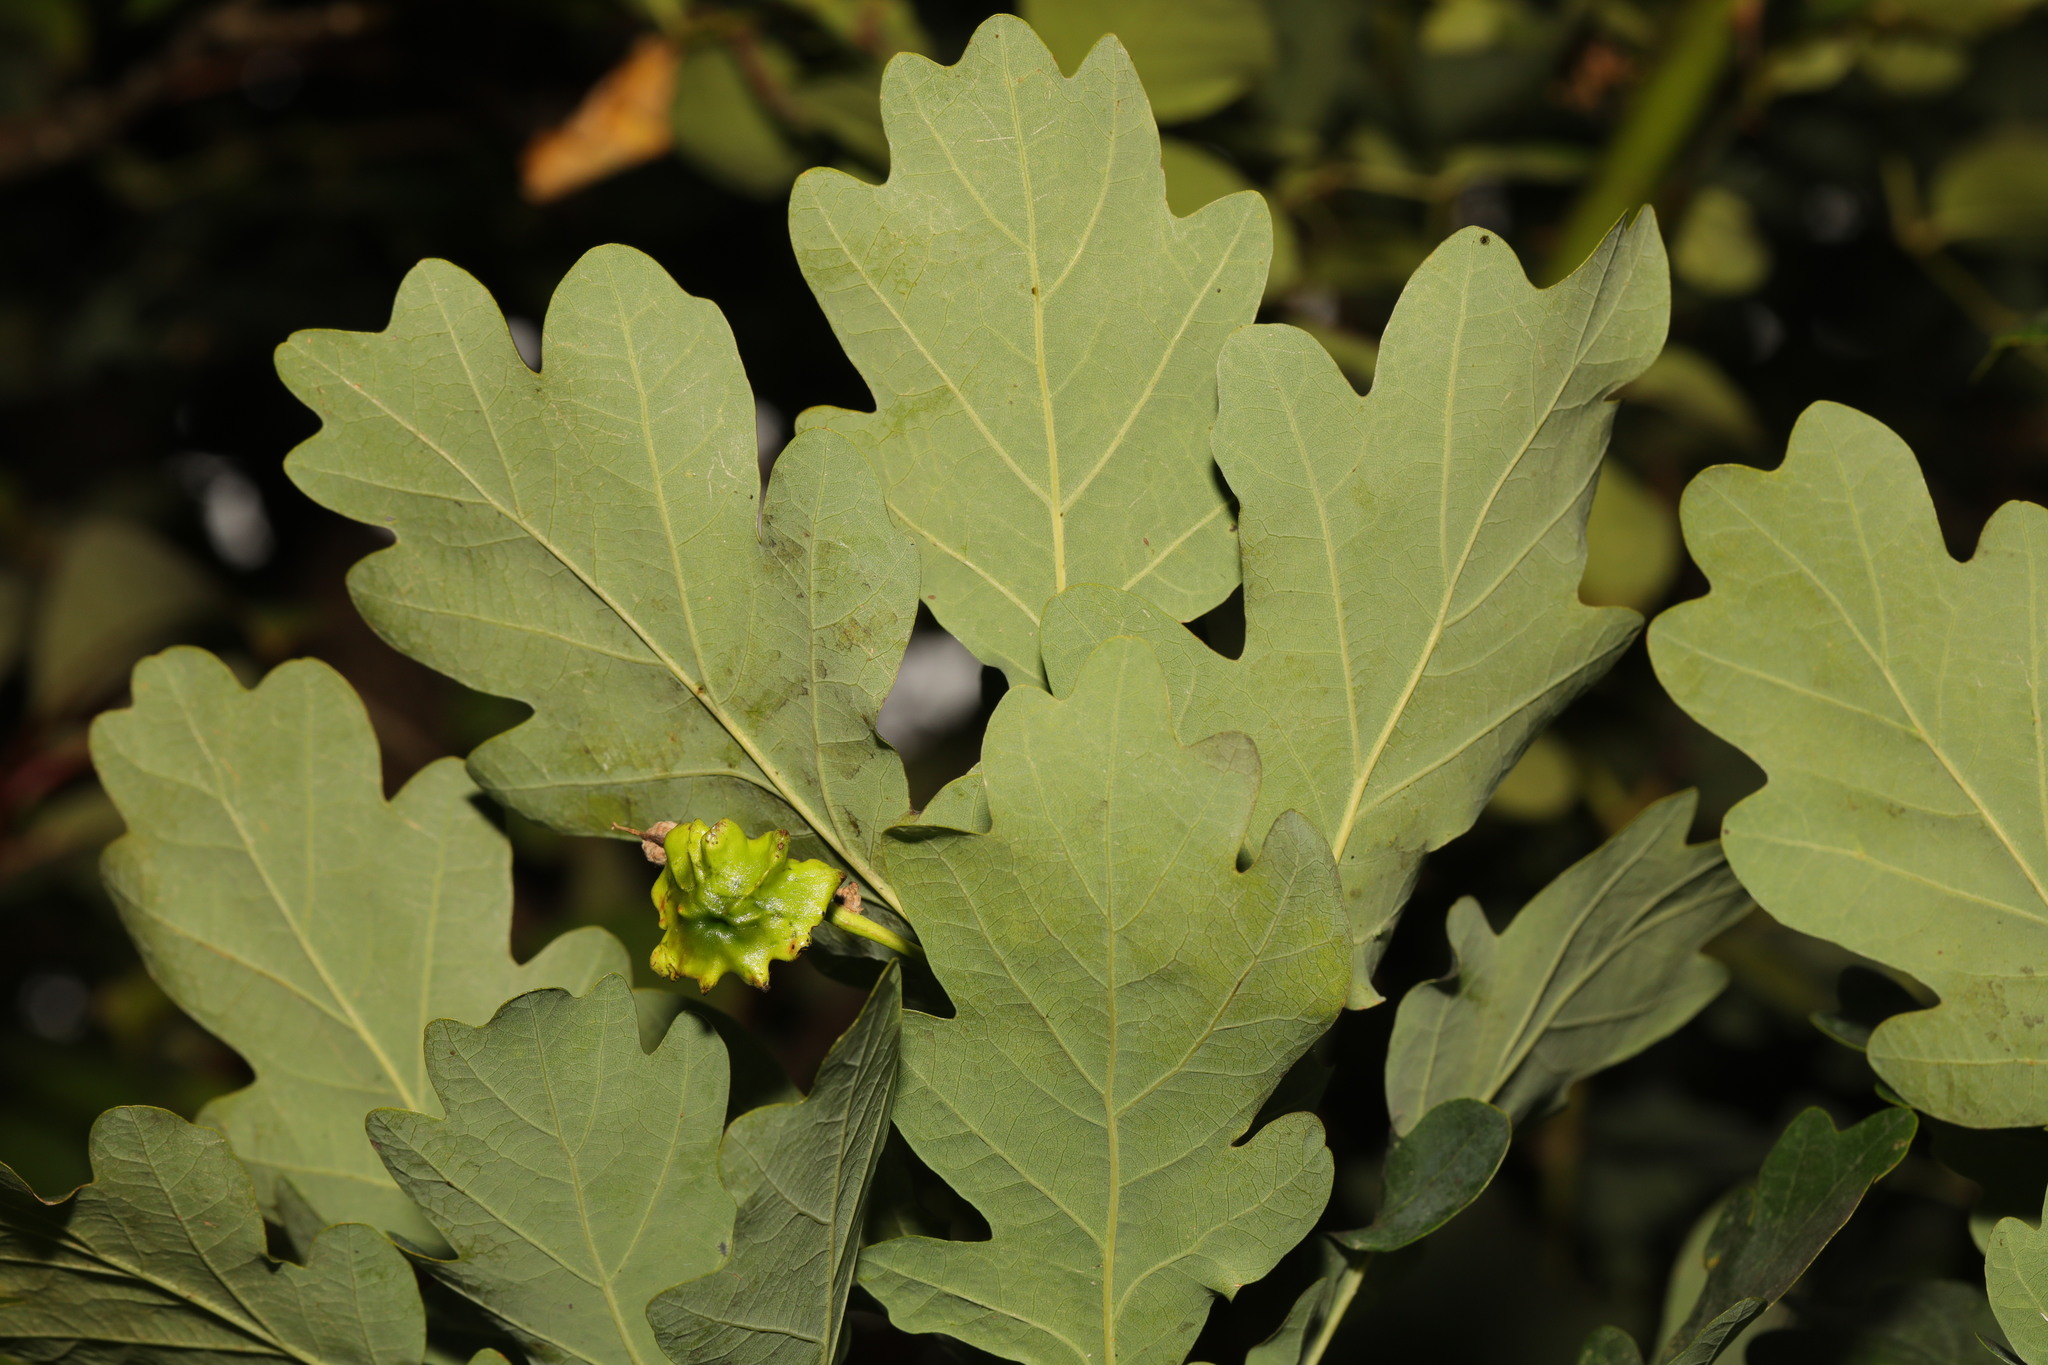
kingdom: Animalia
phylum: Arthropoda
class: Insecta
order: Hymenoptera
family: Cynipidae
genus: Andricus
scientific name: Andricus quercuscalicis
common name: Knopper gall
